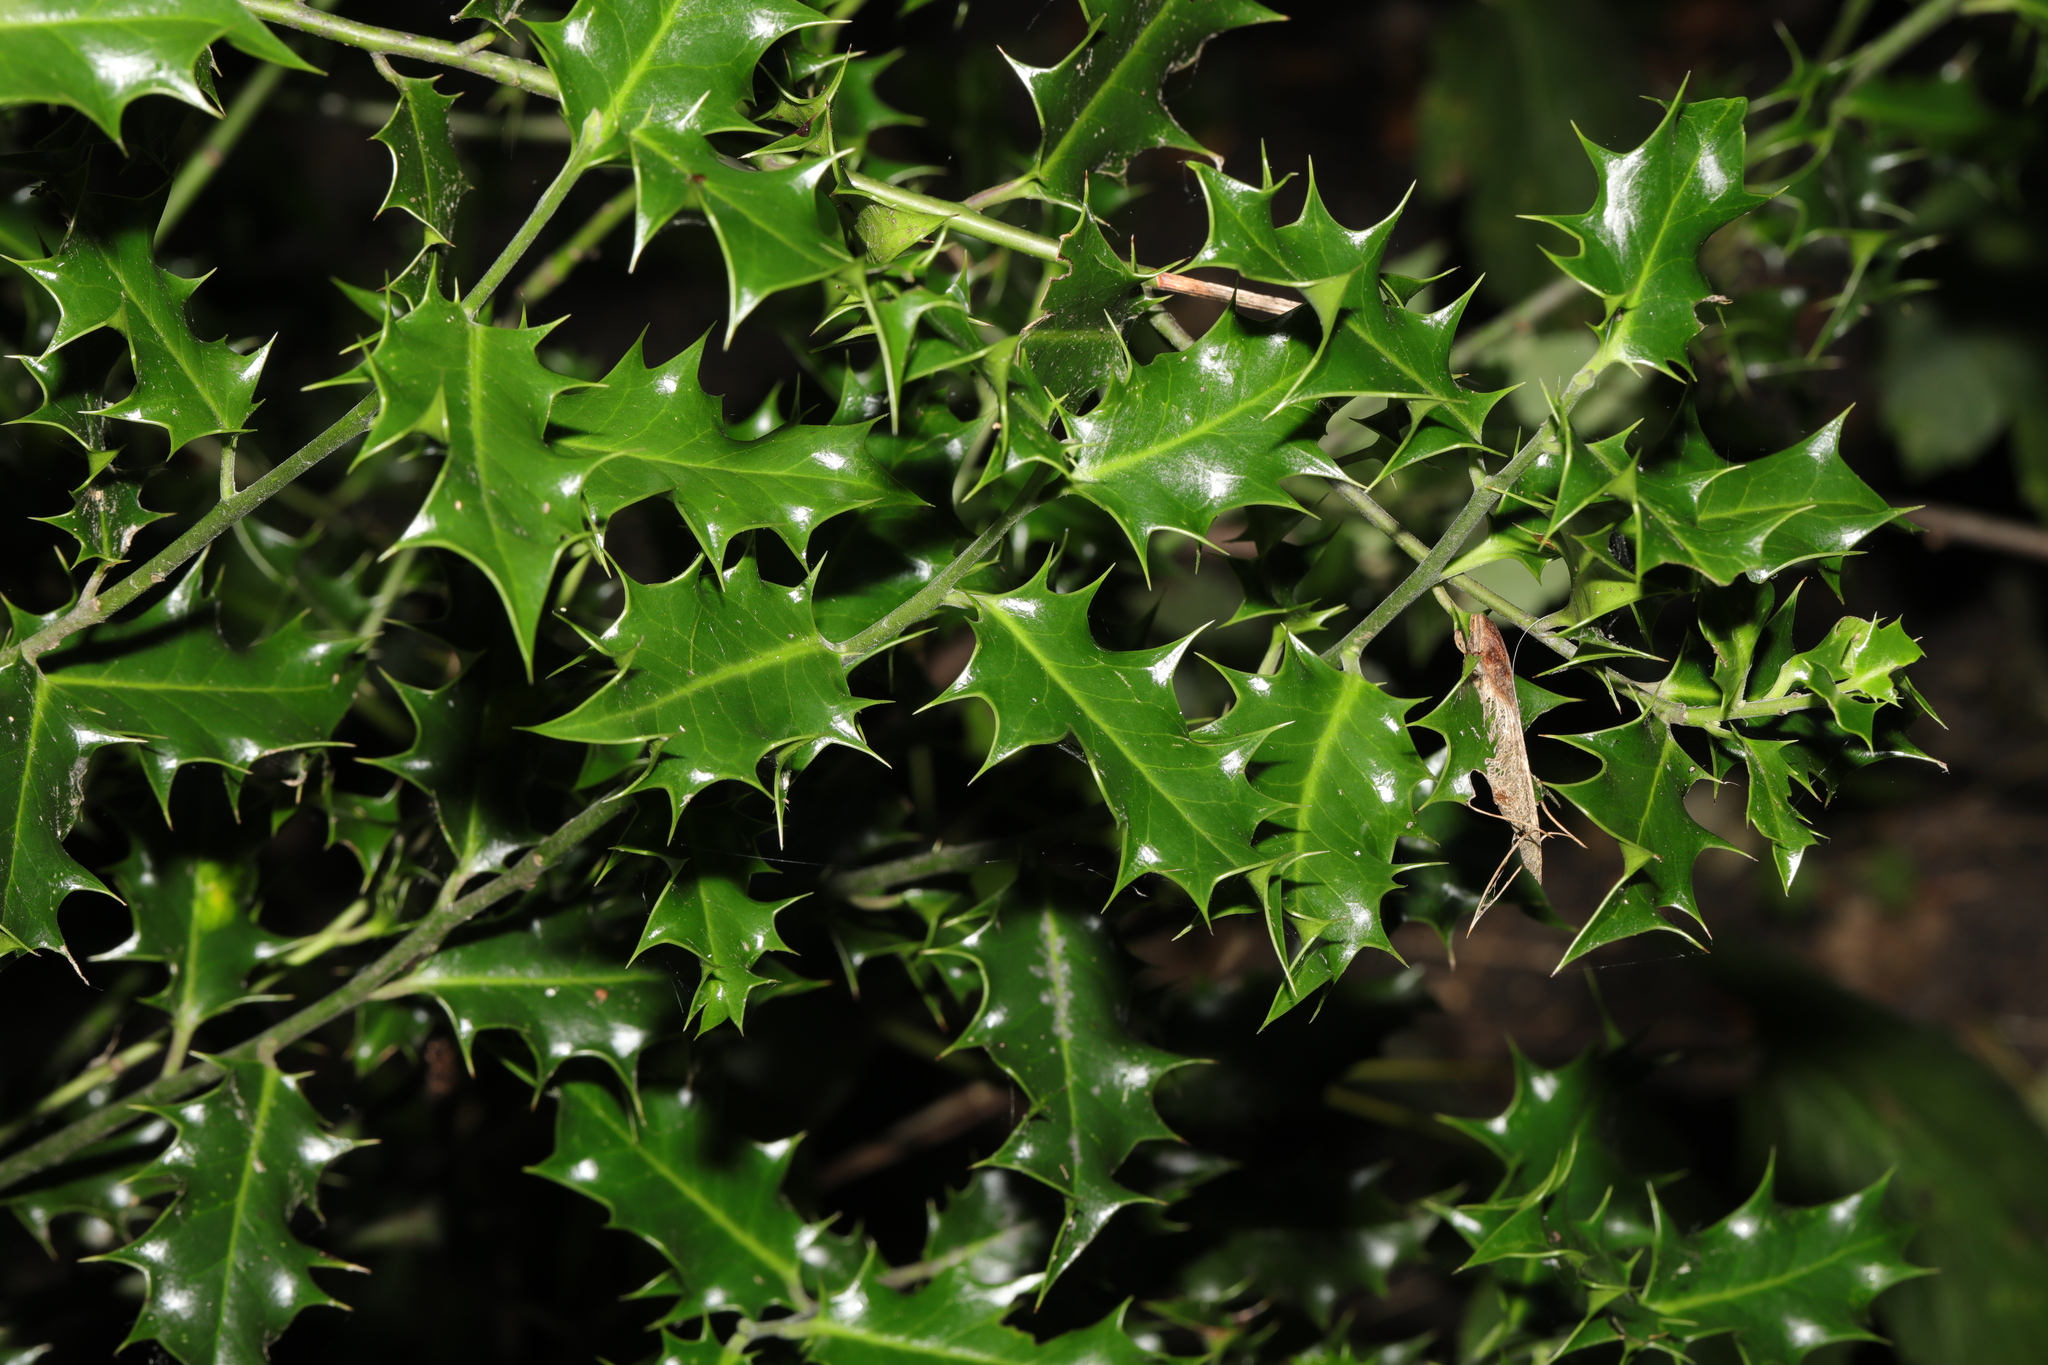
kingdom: Plantae
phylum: Tracheophyta
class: Magnoliopsida
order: Aquifoliales
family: Aquifoliaceae
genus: Ilex
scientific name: Ilex aquifolium
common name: English holly
